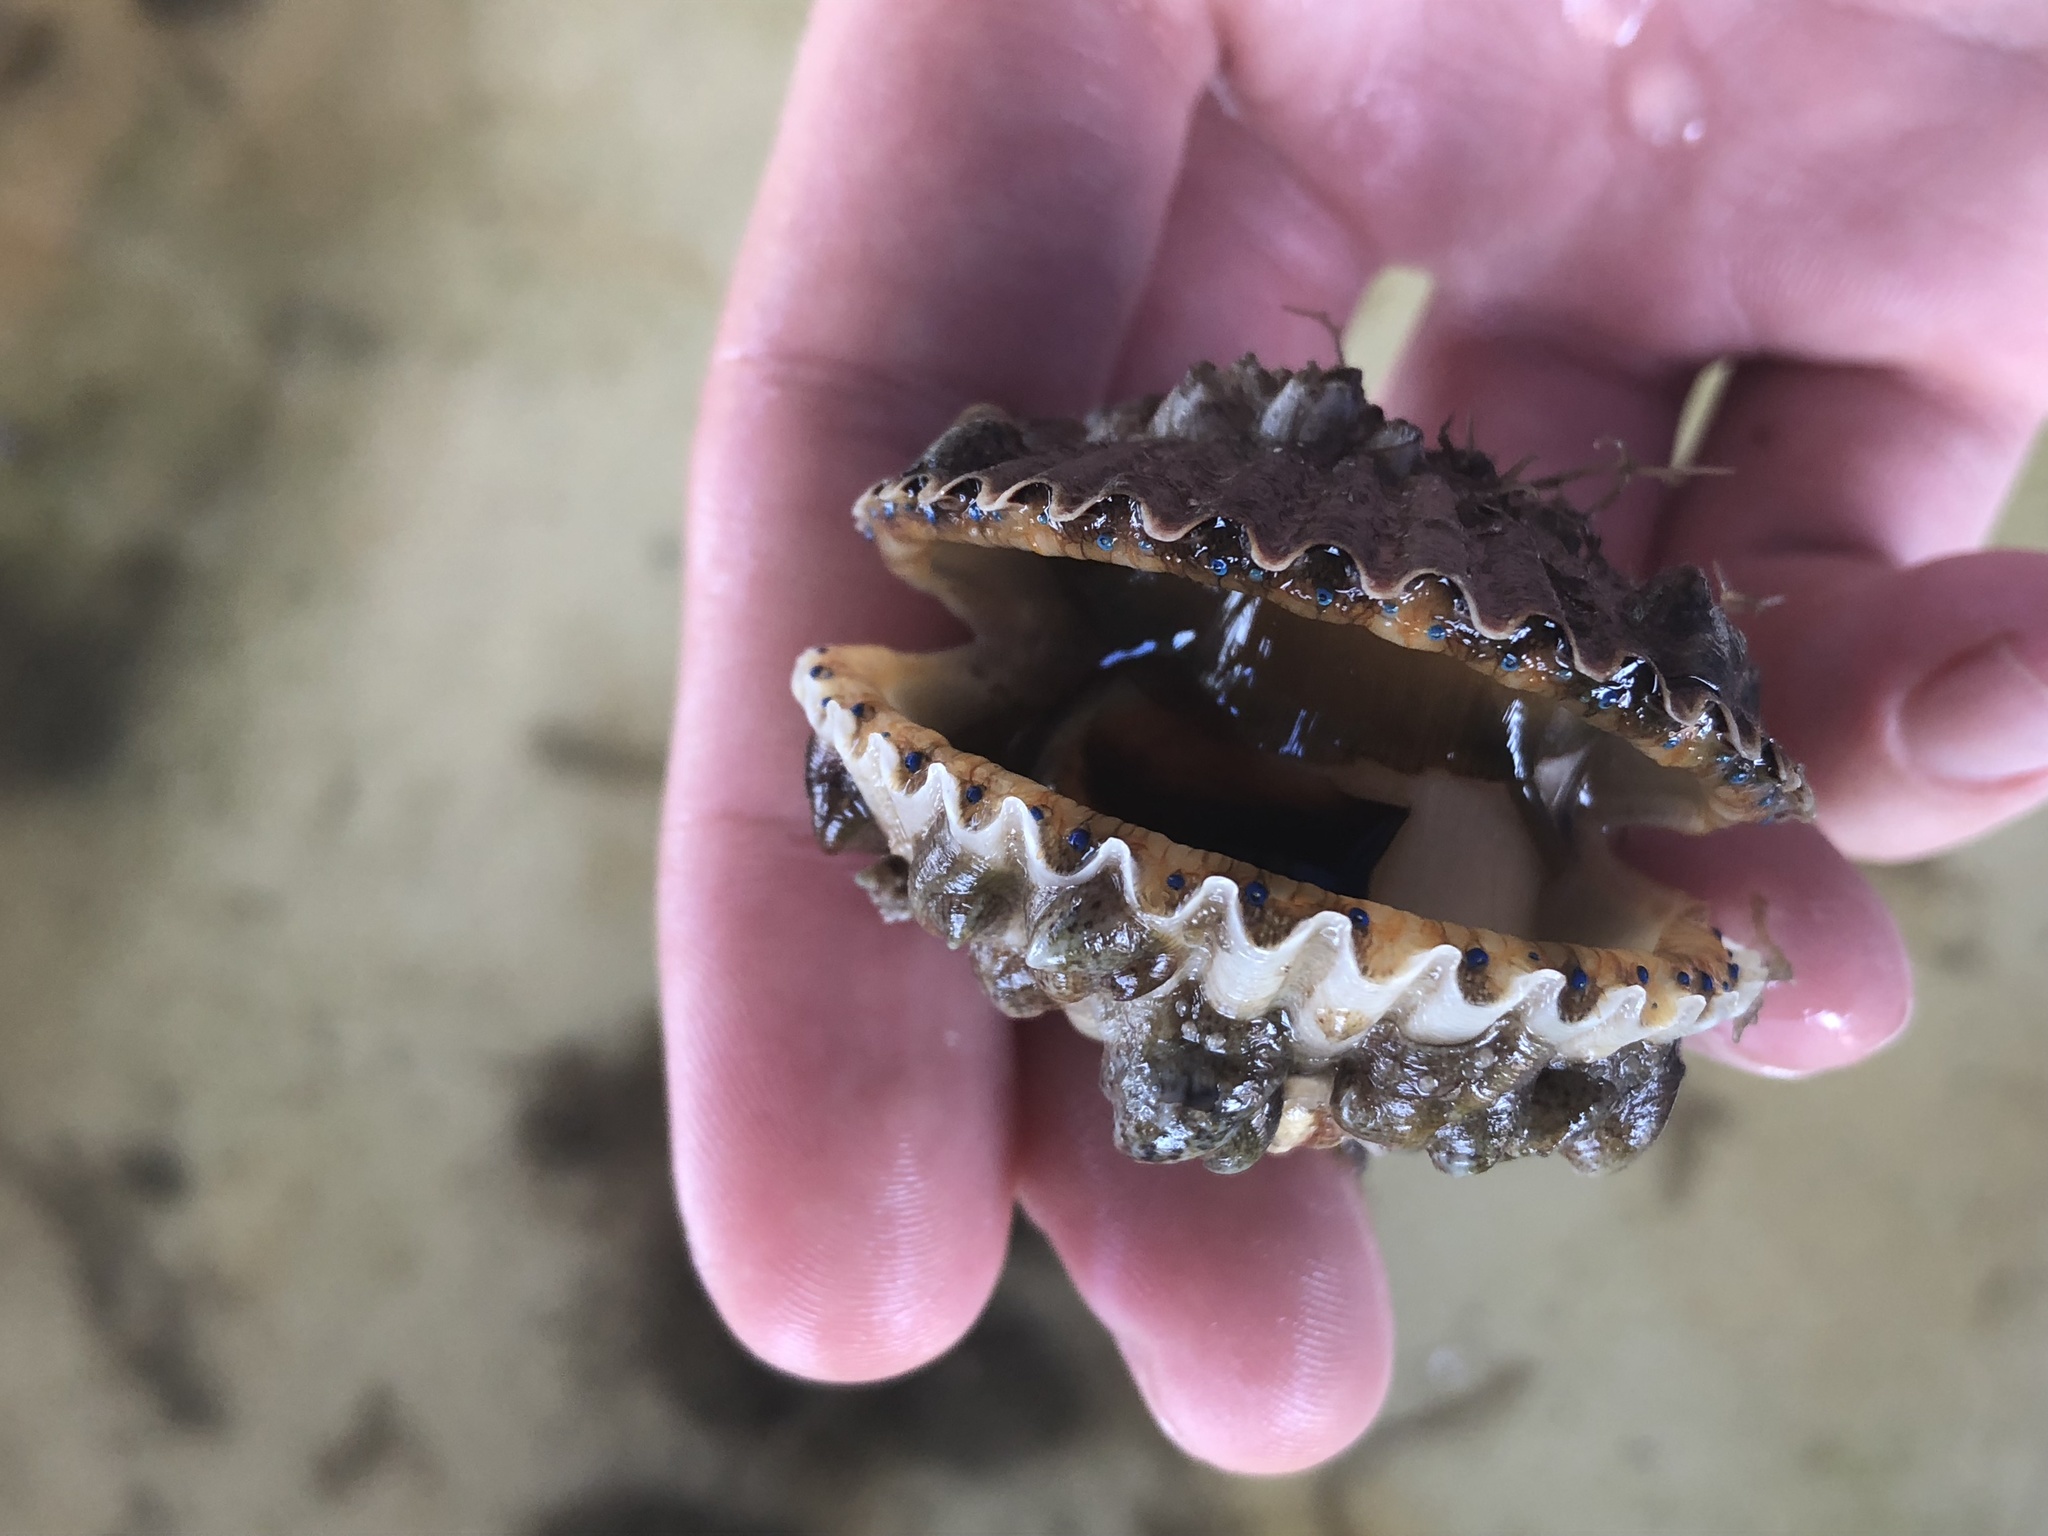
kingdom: Animalia
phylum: Mollusca
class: Bivalvia
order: Pectinida
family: Pectinidae
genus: Argopecten
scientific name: Argopecten irradians
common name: Atlantic bay scallop
